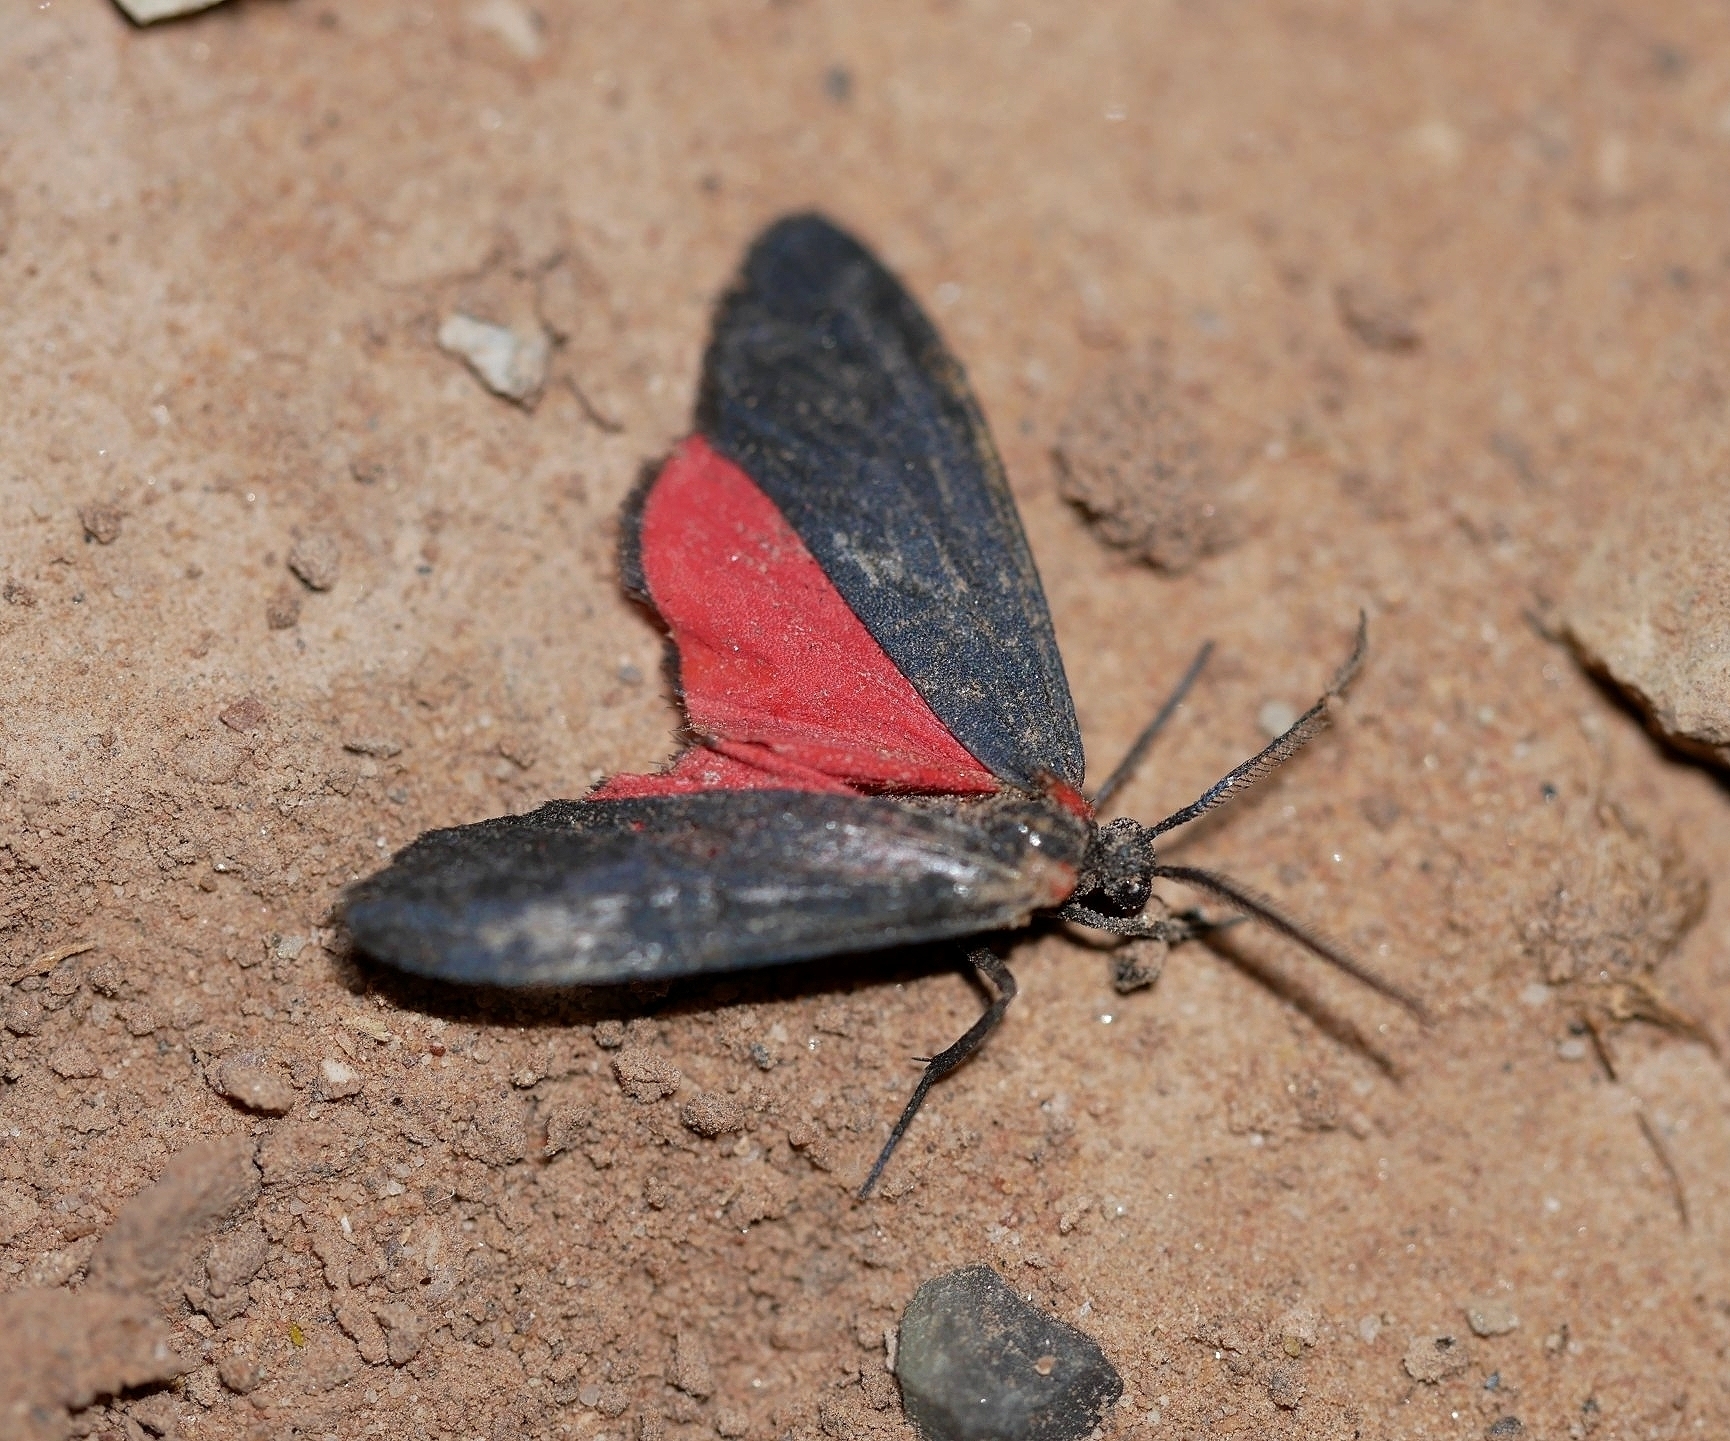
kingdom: Animalia
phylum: Arthropoda
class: Insecta
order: Lepidoptera
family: Erebidae
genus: Lycomorpha
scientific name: Lycomorpha splendens
